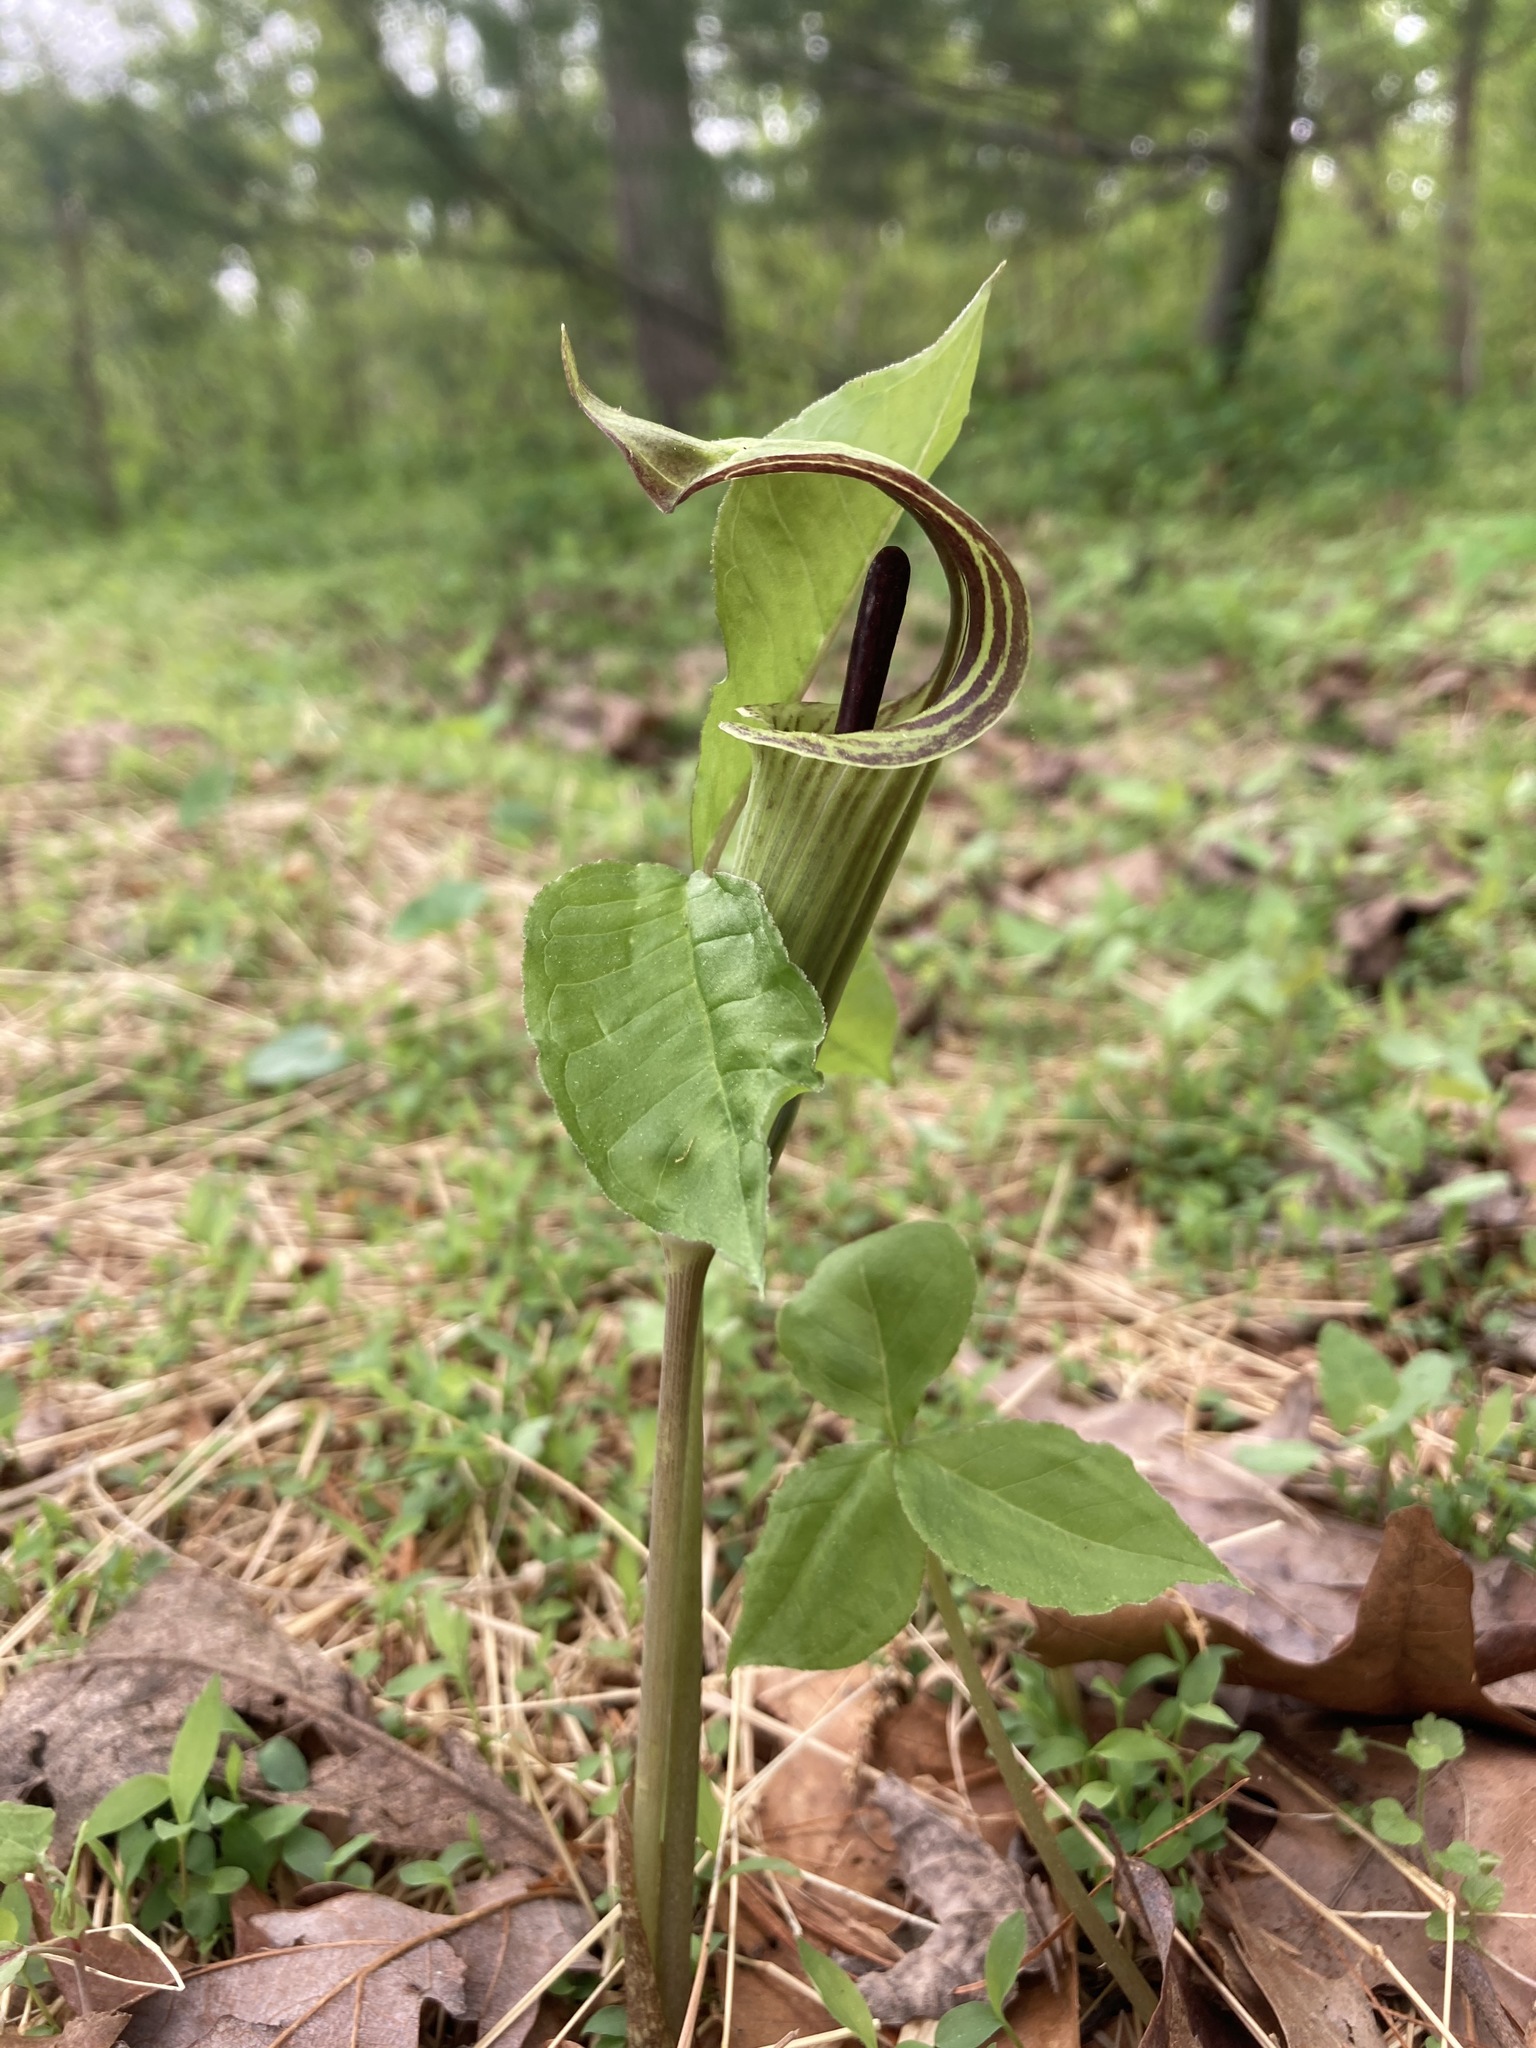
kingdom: Plantae
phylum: Tracheophyta
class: Liliopsida
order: Alismatales
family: Araceae
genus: Arisaema
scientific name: Arisaema triphyllum
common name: Jack-in-the-pulpit
